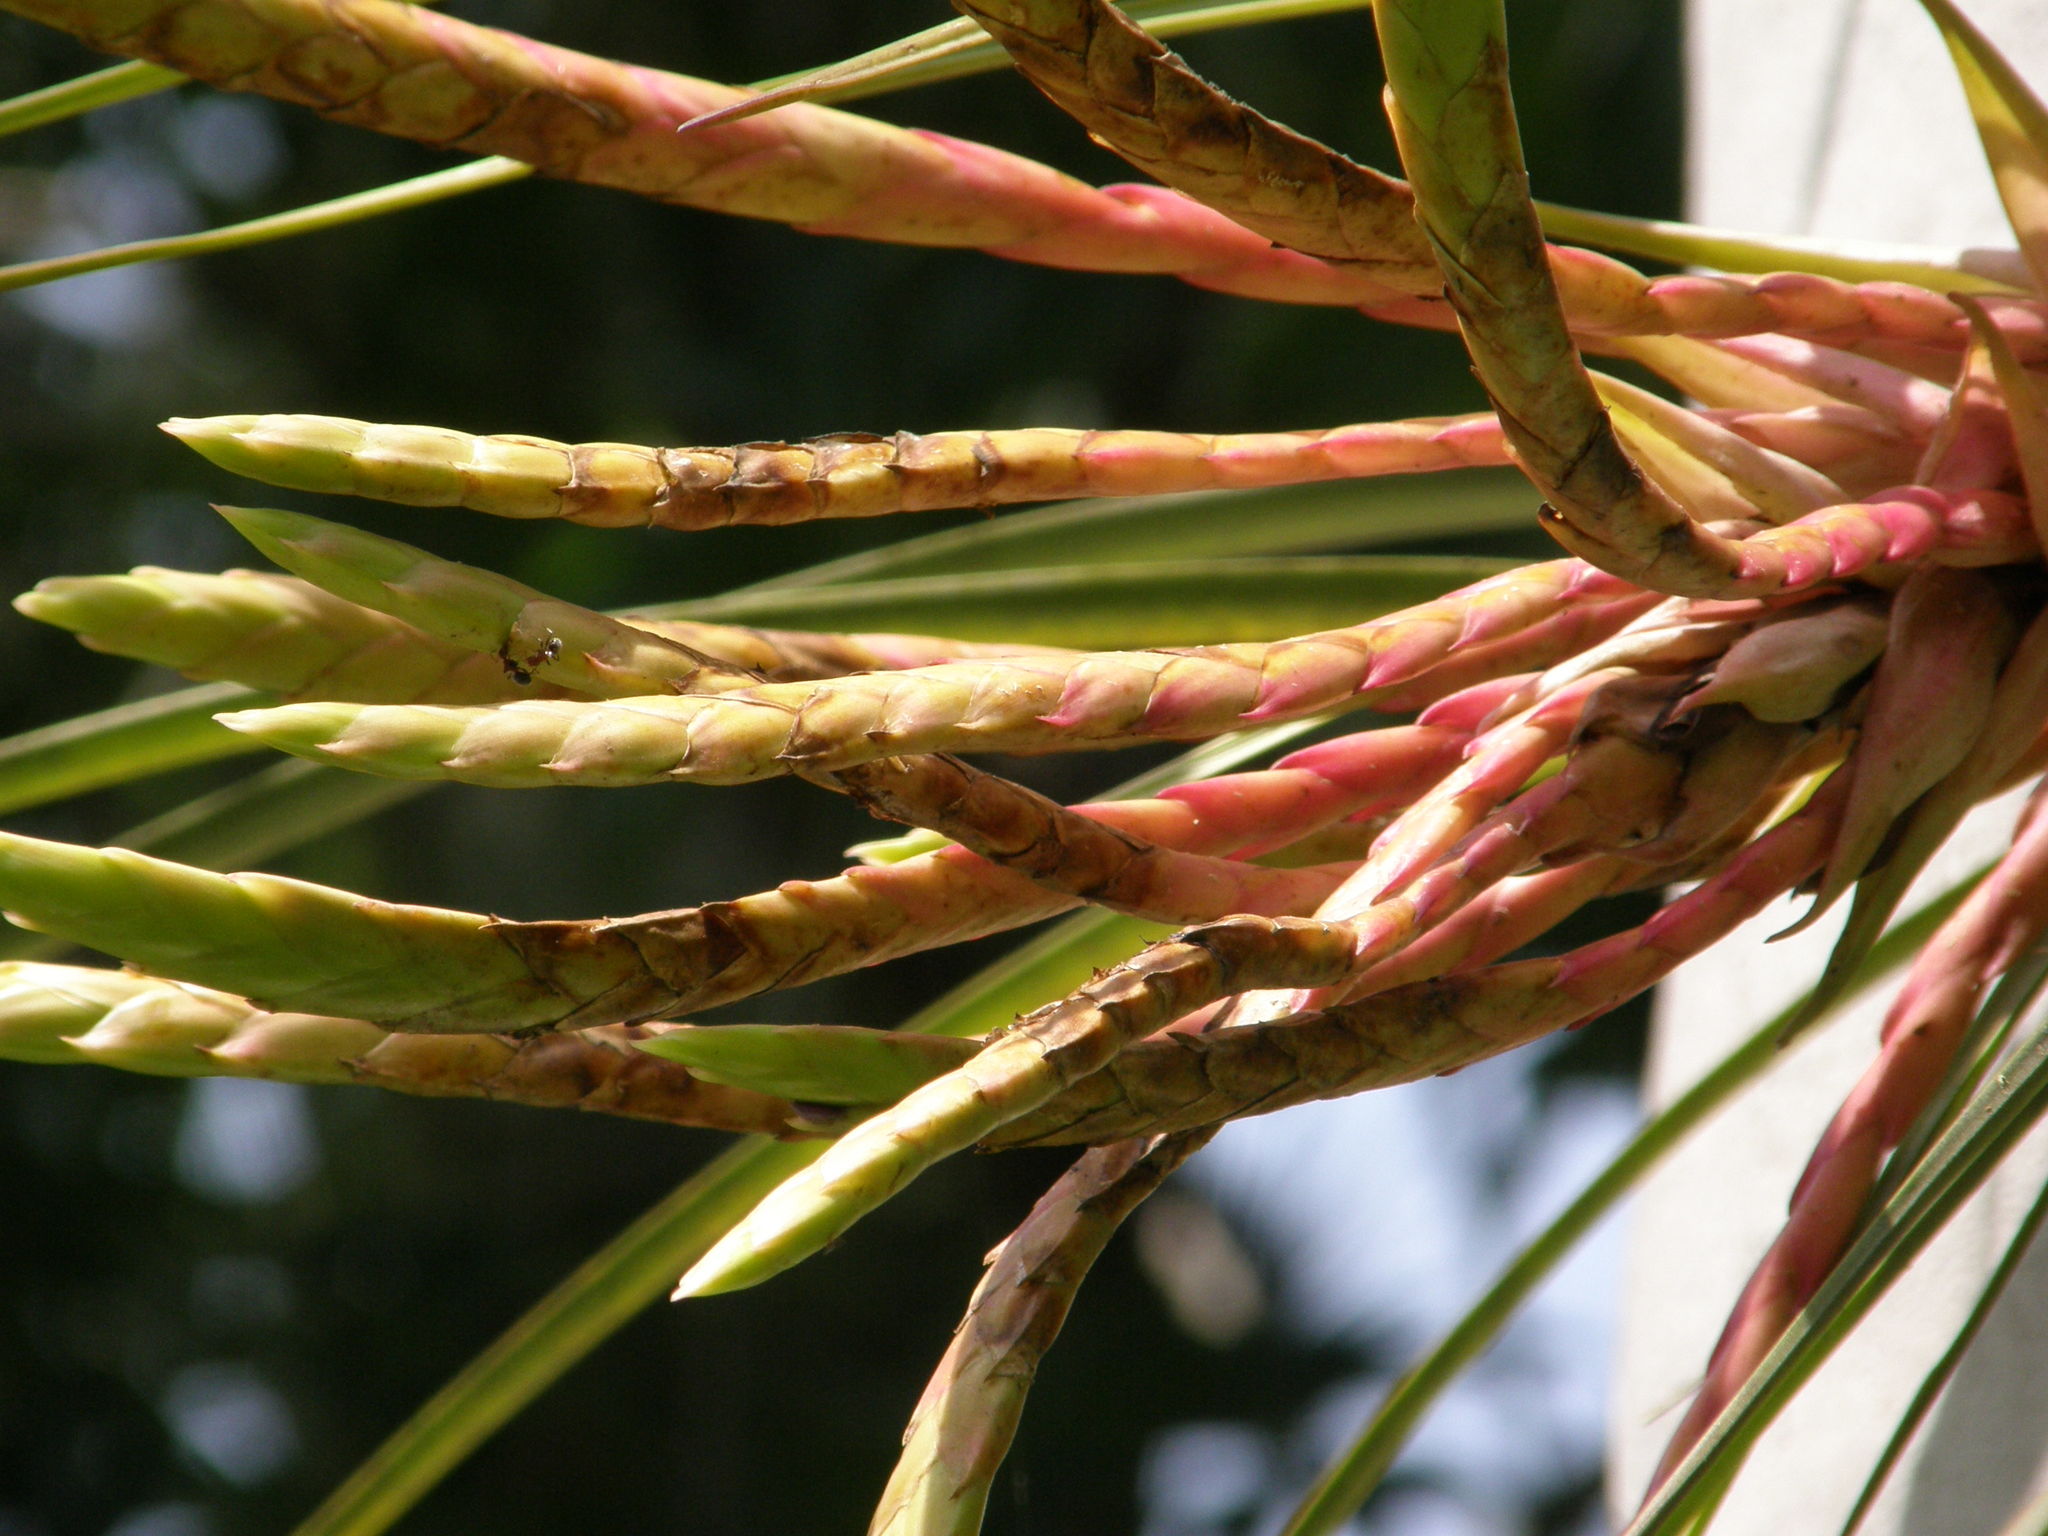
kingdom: Plantae
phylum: Tracheophyta
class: Liliopsida
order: Poales
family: Bromeliaceae
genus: Tillandsia
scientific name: Tillandsia fasciculata
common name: Giant airplant
